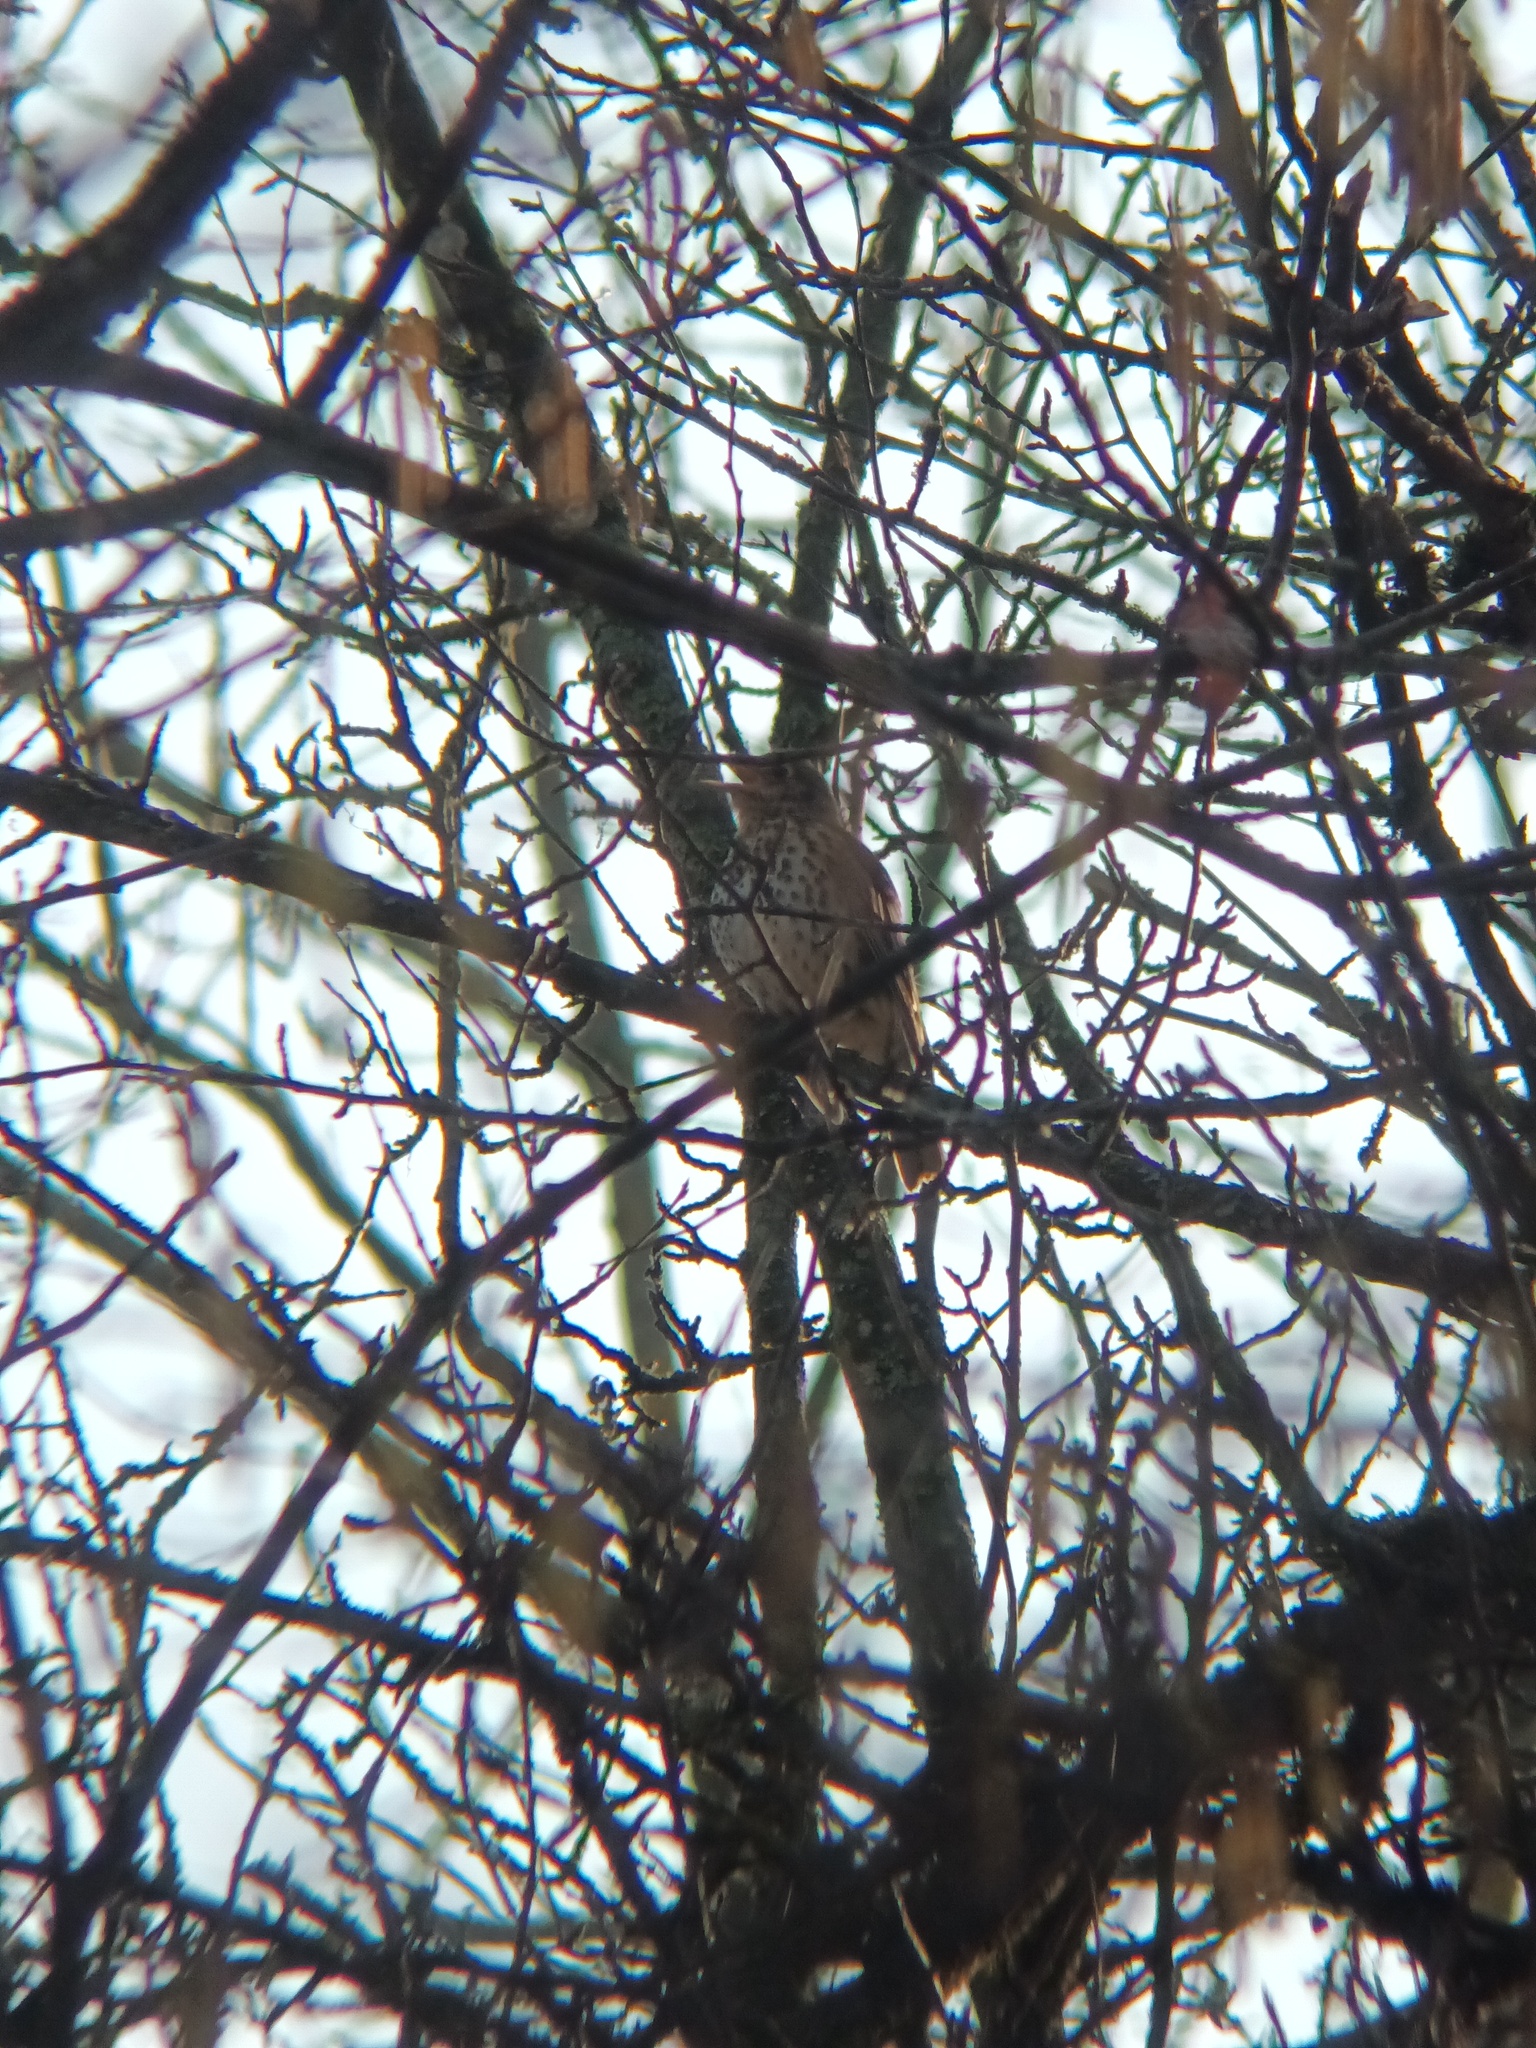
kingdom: Animalia
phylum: Chordata
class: Aves
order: Passeriformes
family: Turdidae
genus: Turdus
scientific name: Turdus philomelos
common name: Song thrush
